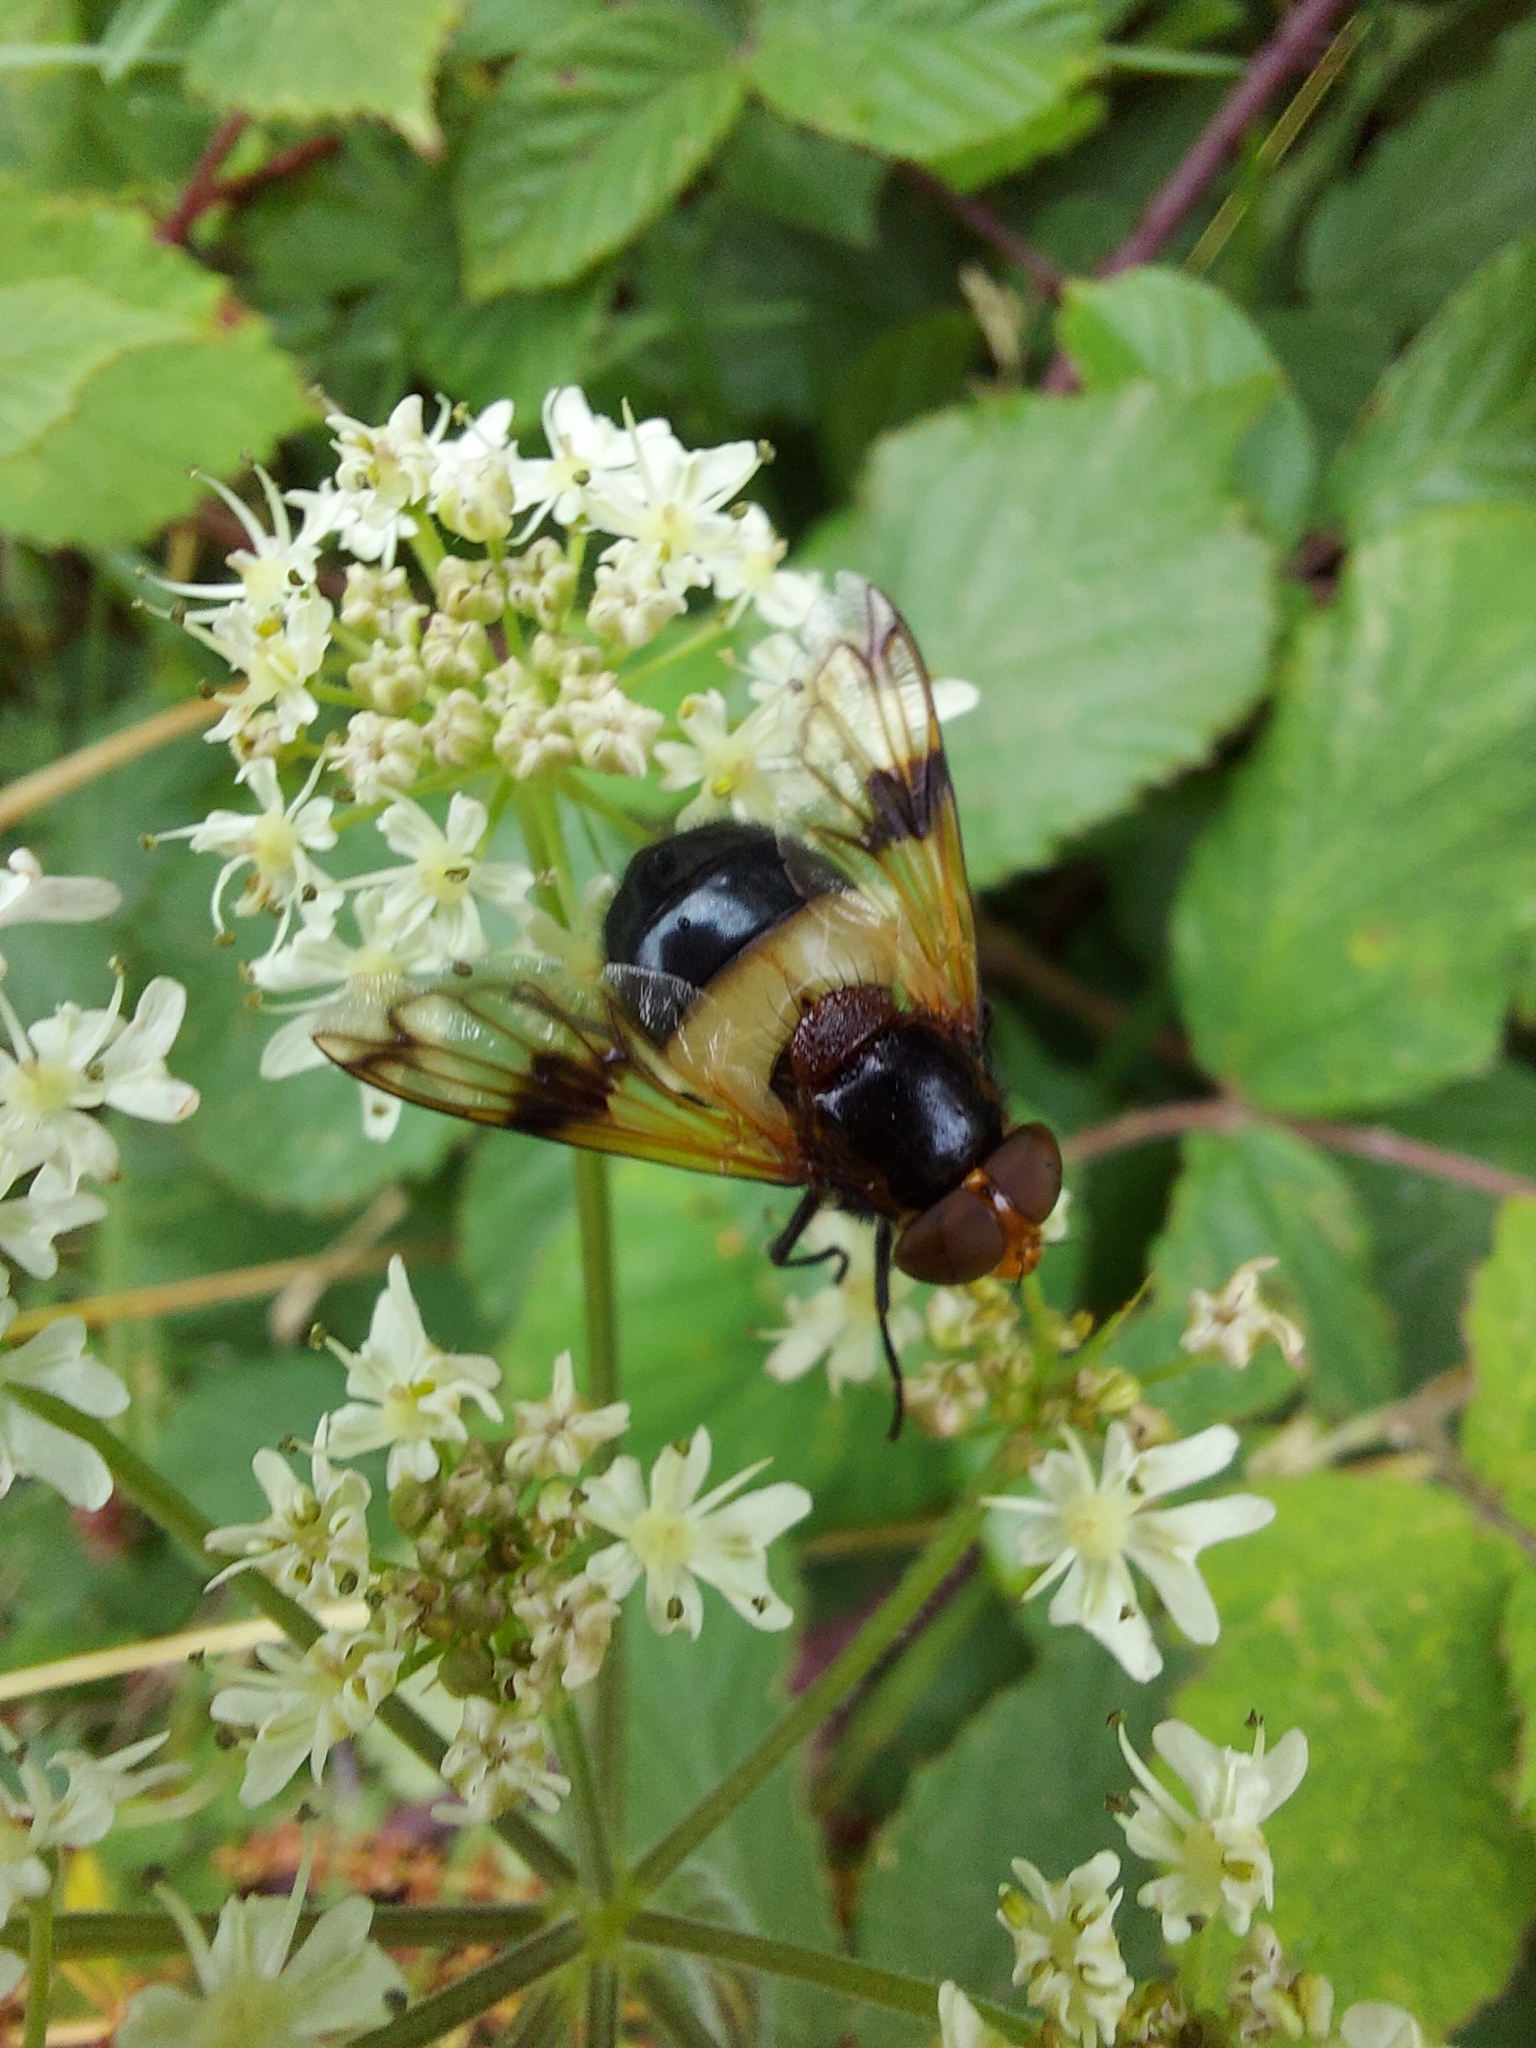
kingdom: Animalia
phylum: Arthropoda
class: Insecta
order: Diptera
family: Syrphidae
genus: Volucella
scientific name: Volucella pellucens
